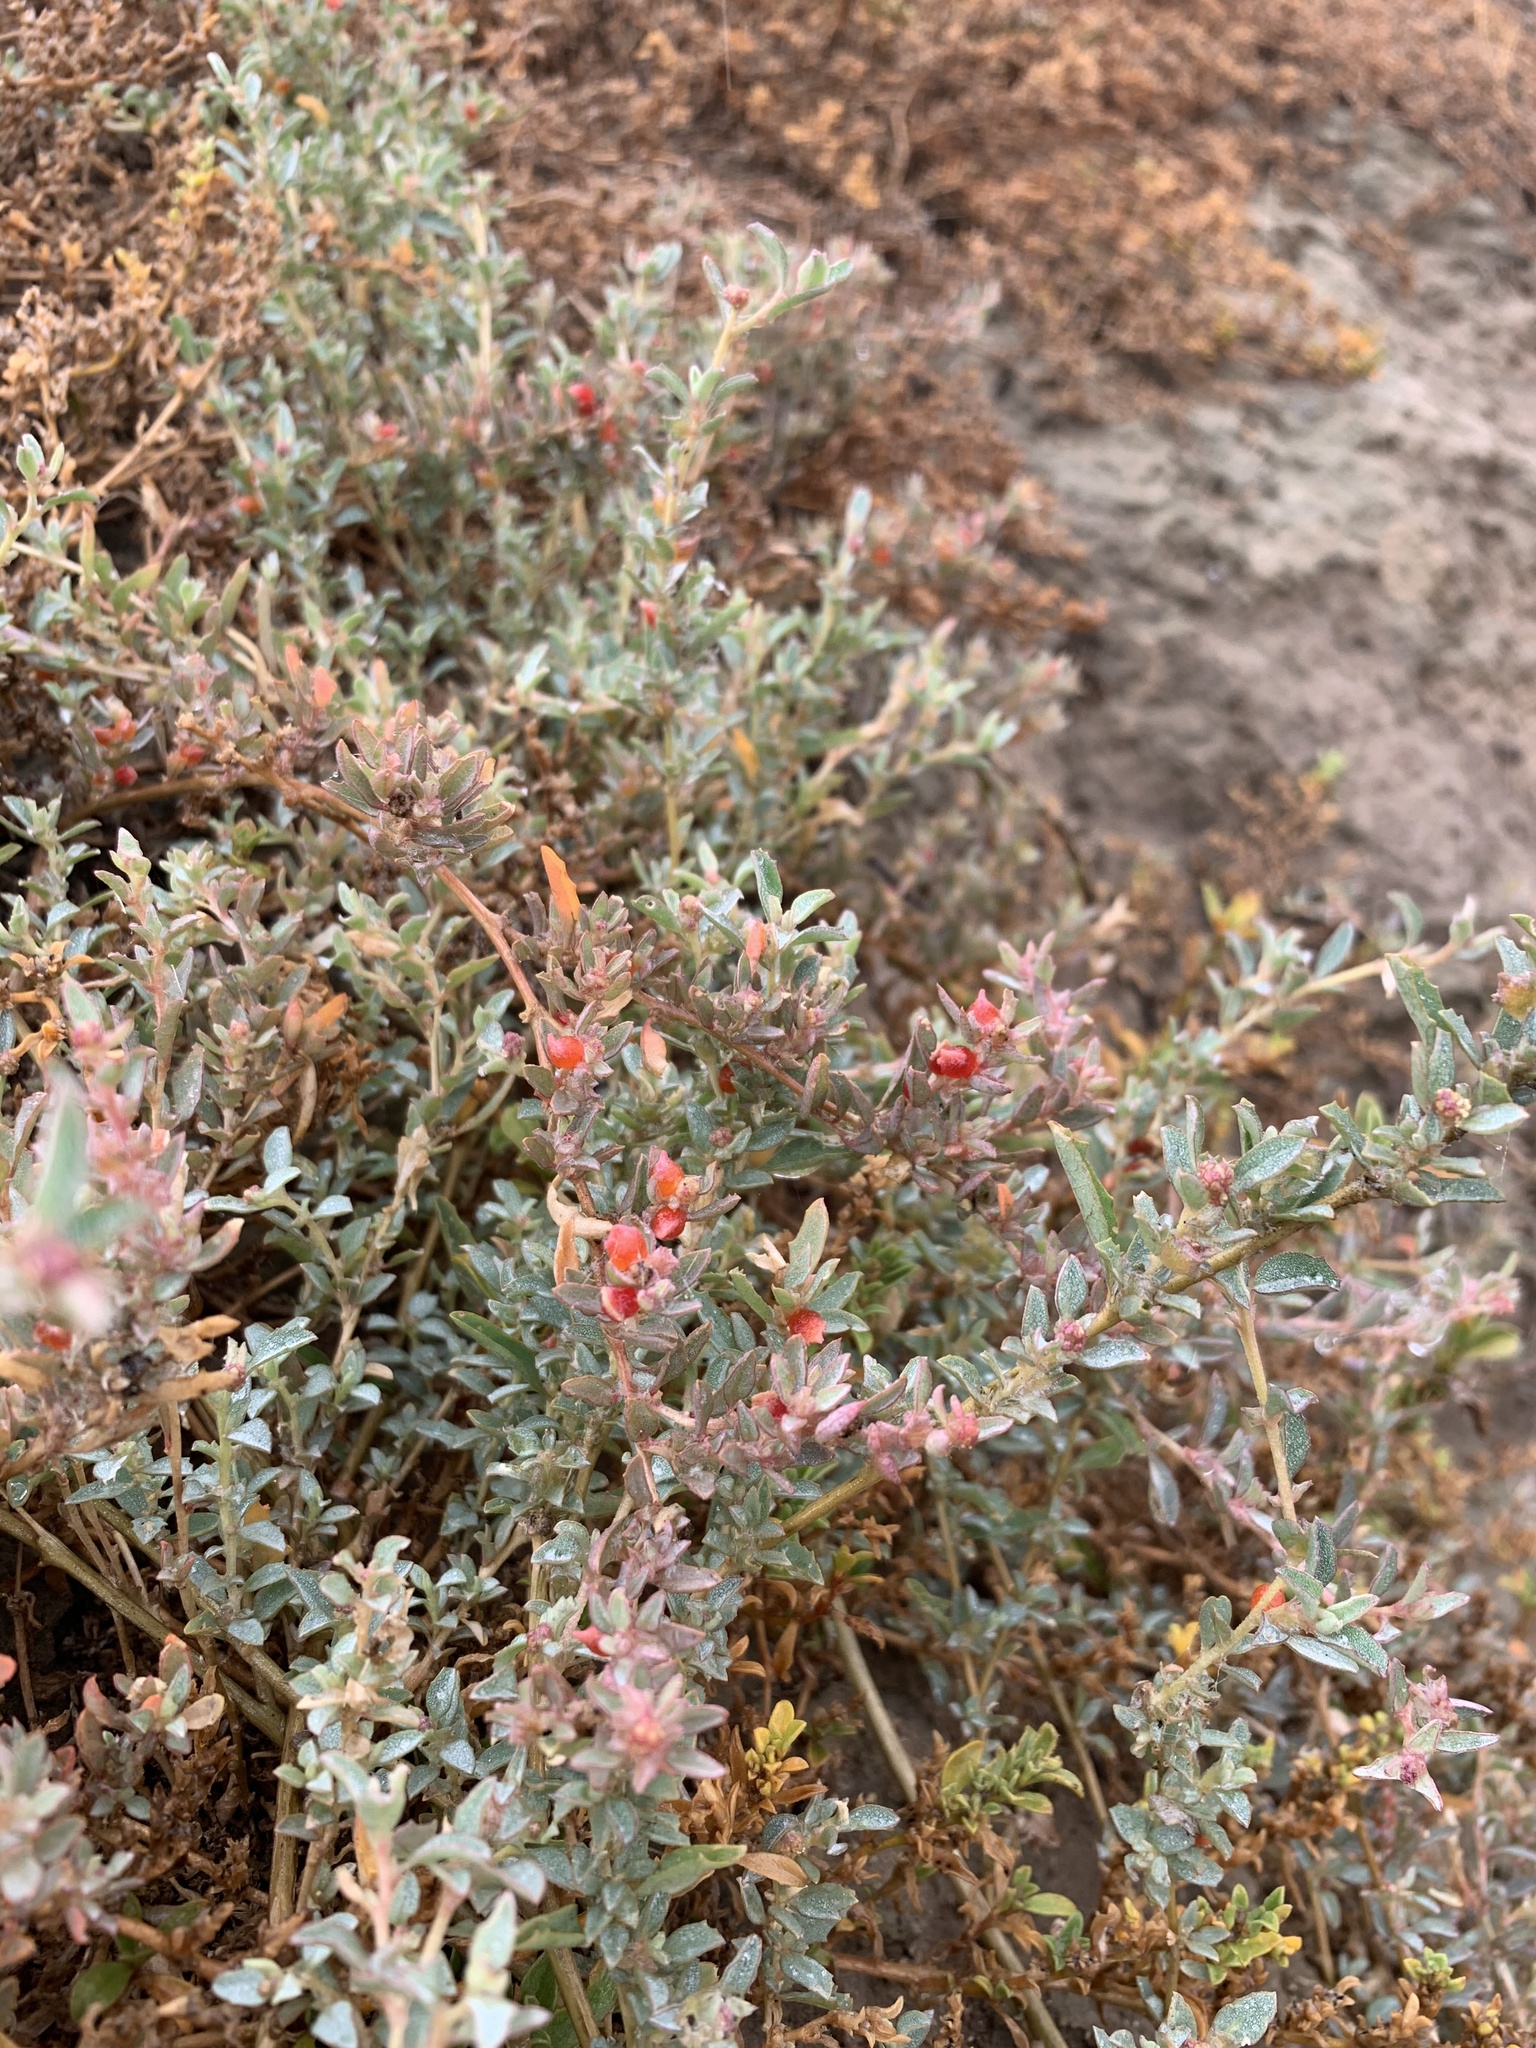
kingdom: Plantae
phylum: Tracheophyta
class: Magnoliopsida
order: Caryophyllales
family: Amaranthaceae
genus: Atriplex
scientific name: Atriplex semibaccata
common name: Australian saltbush
